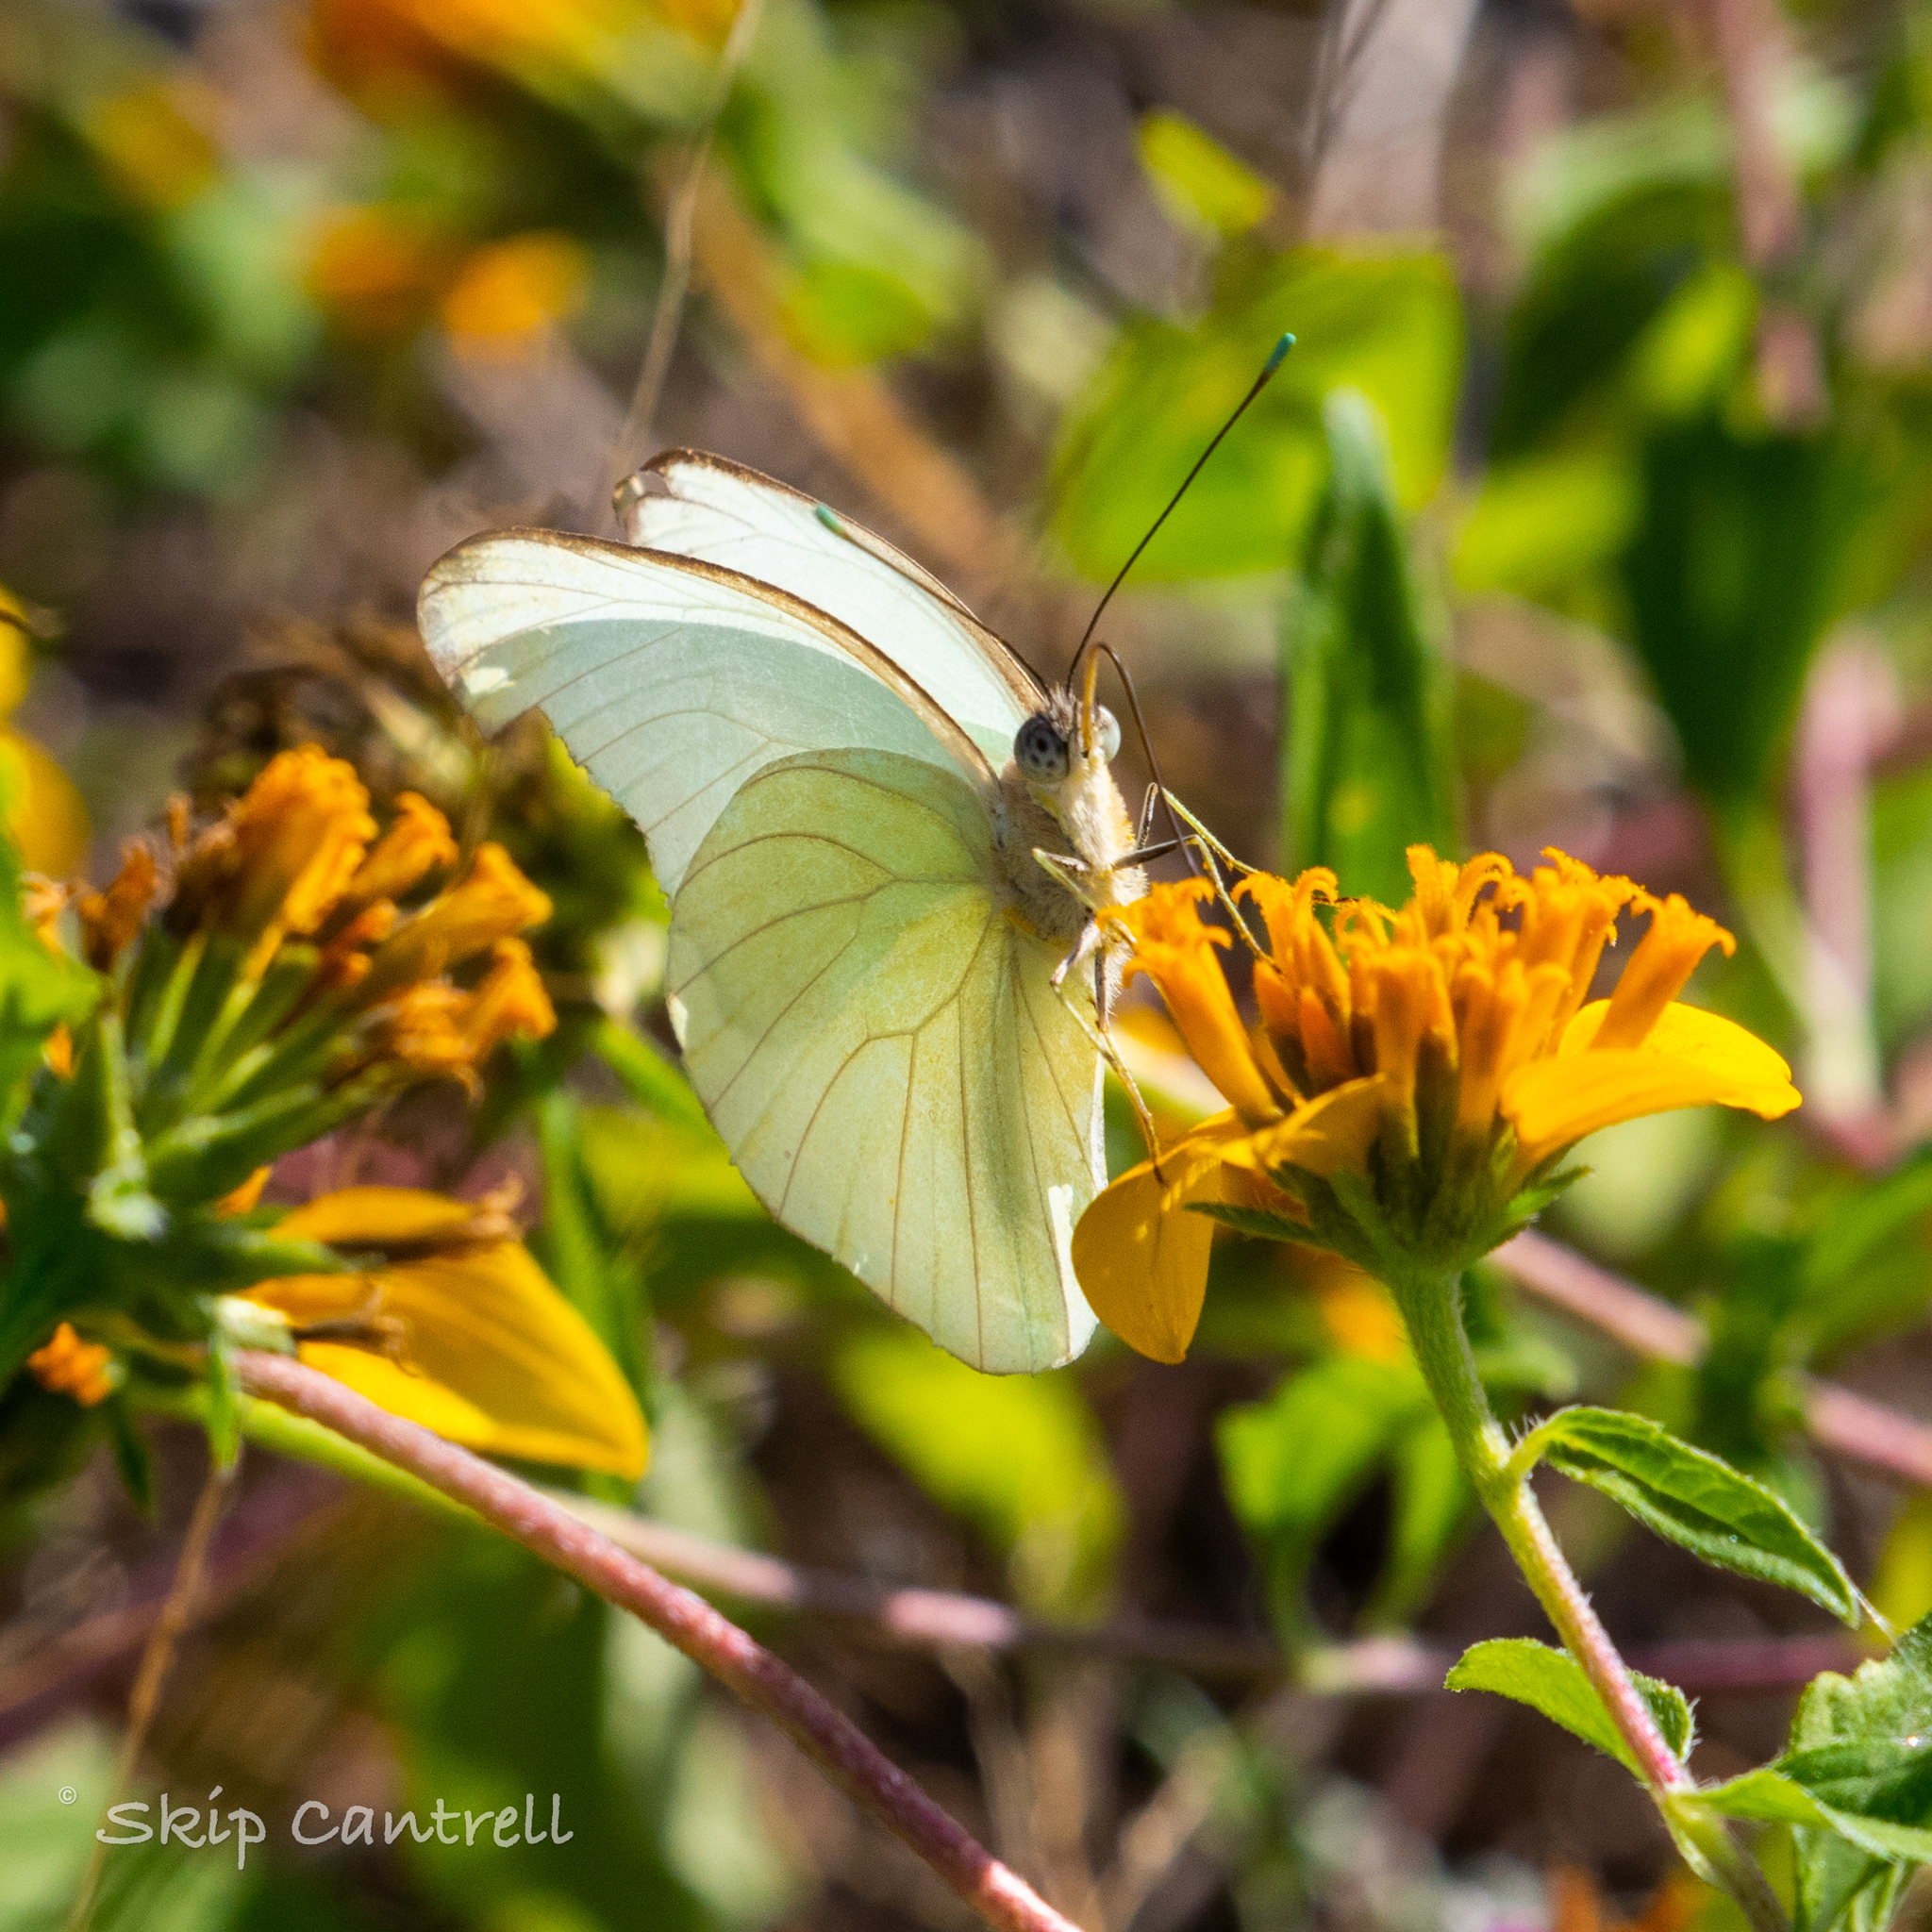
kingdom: Animalia
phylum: Arthropoda
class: Insecta
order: Lepidoptera
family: Pieridae
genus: Ascia
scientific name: Ascia monuste
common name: Great southern white
